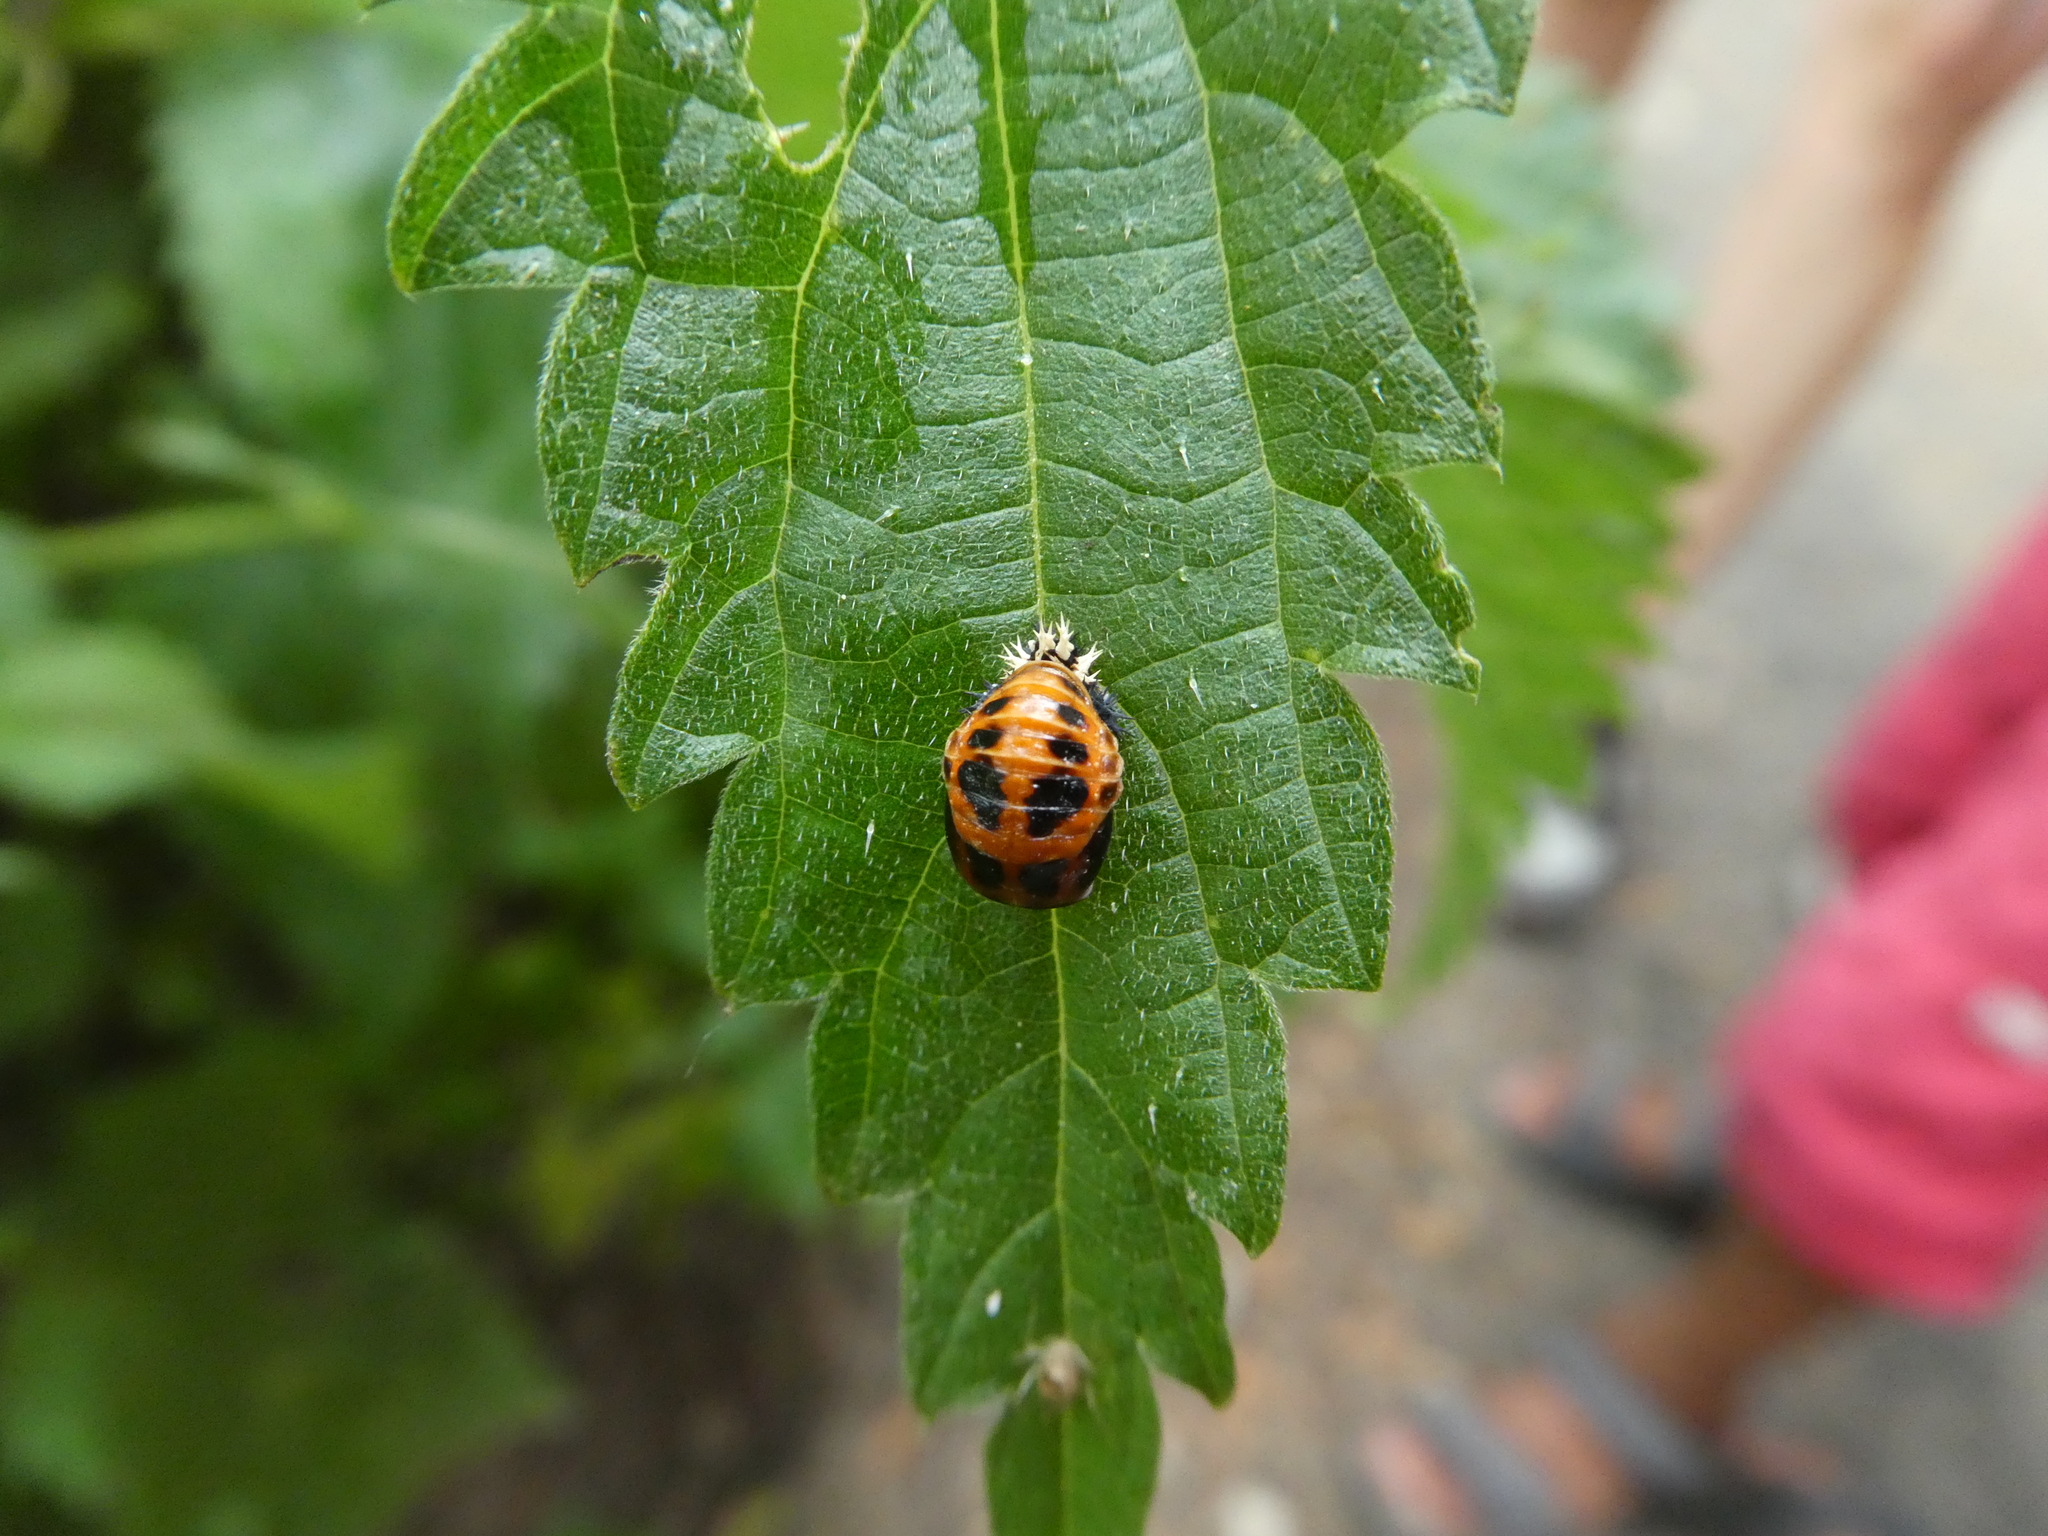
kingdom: Animalia
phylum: Arthropoda
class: Insecta
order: Coleoptera
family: Coccinellidae
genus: Harmonia
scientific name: Harmonia axyridis
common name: Harlequin ladybird
